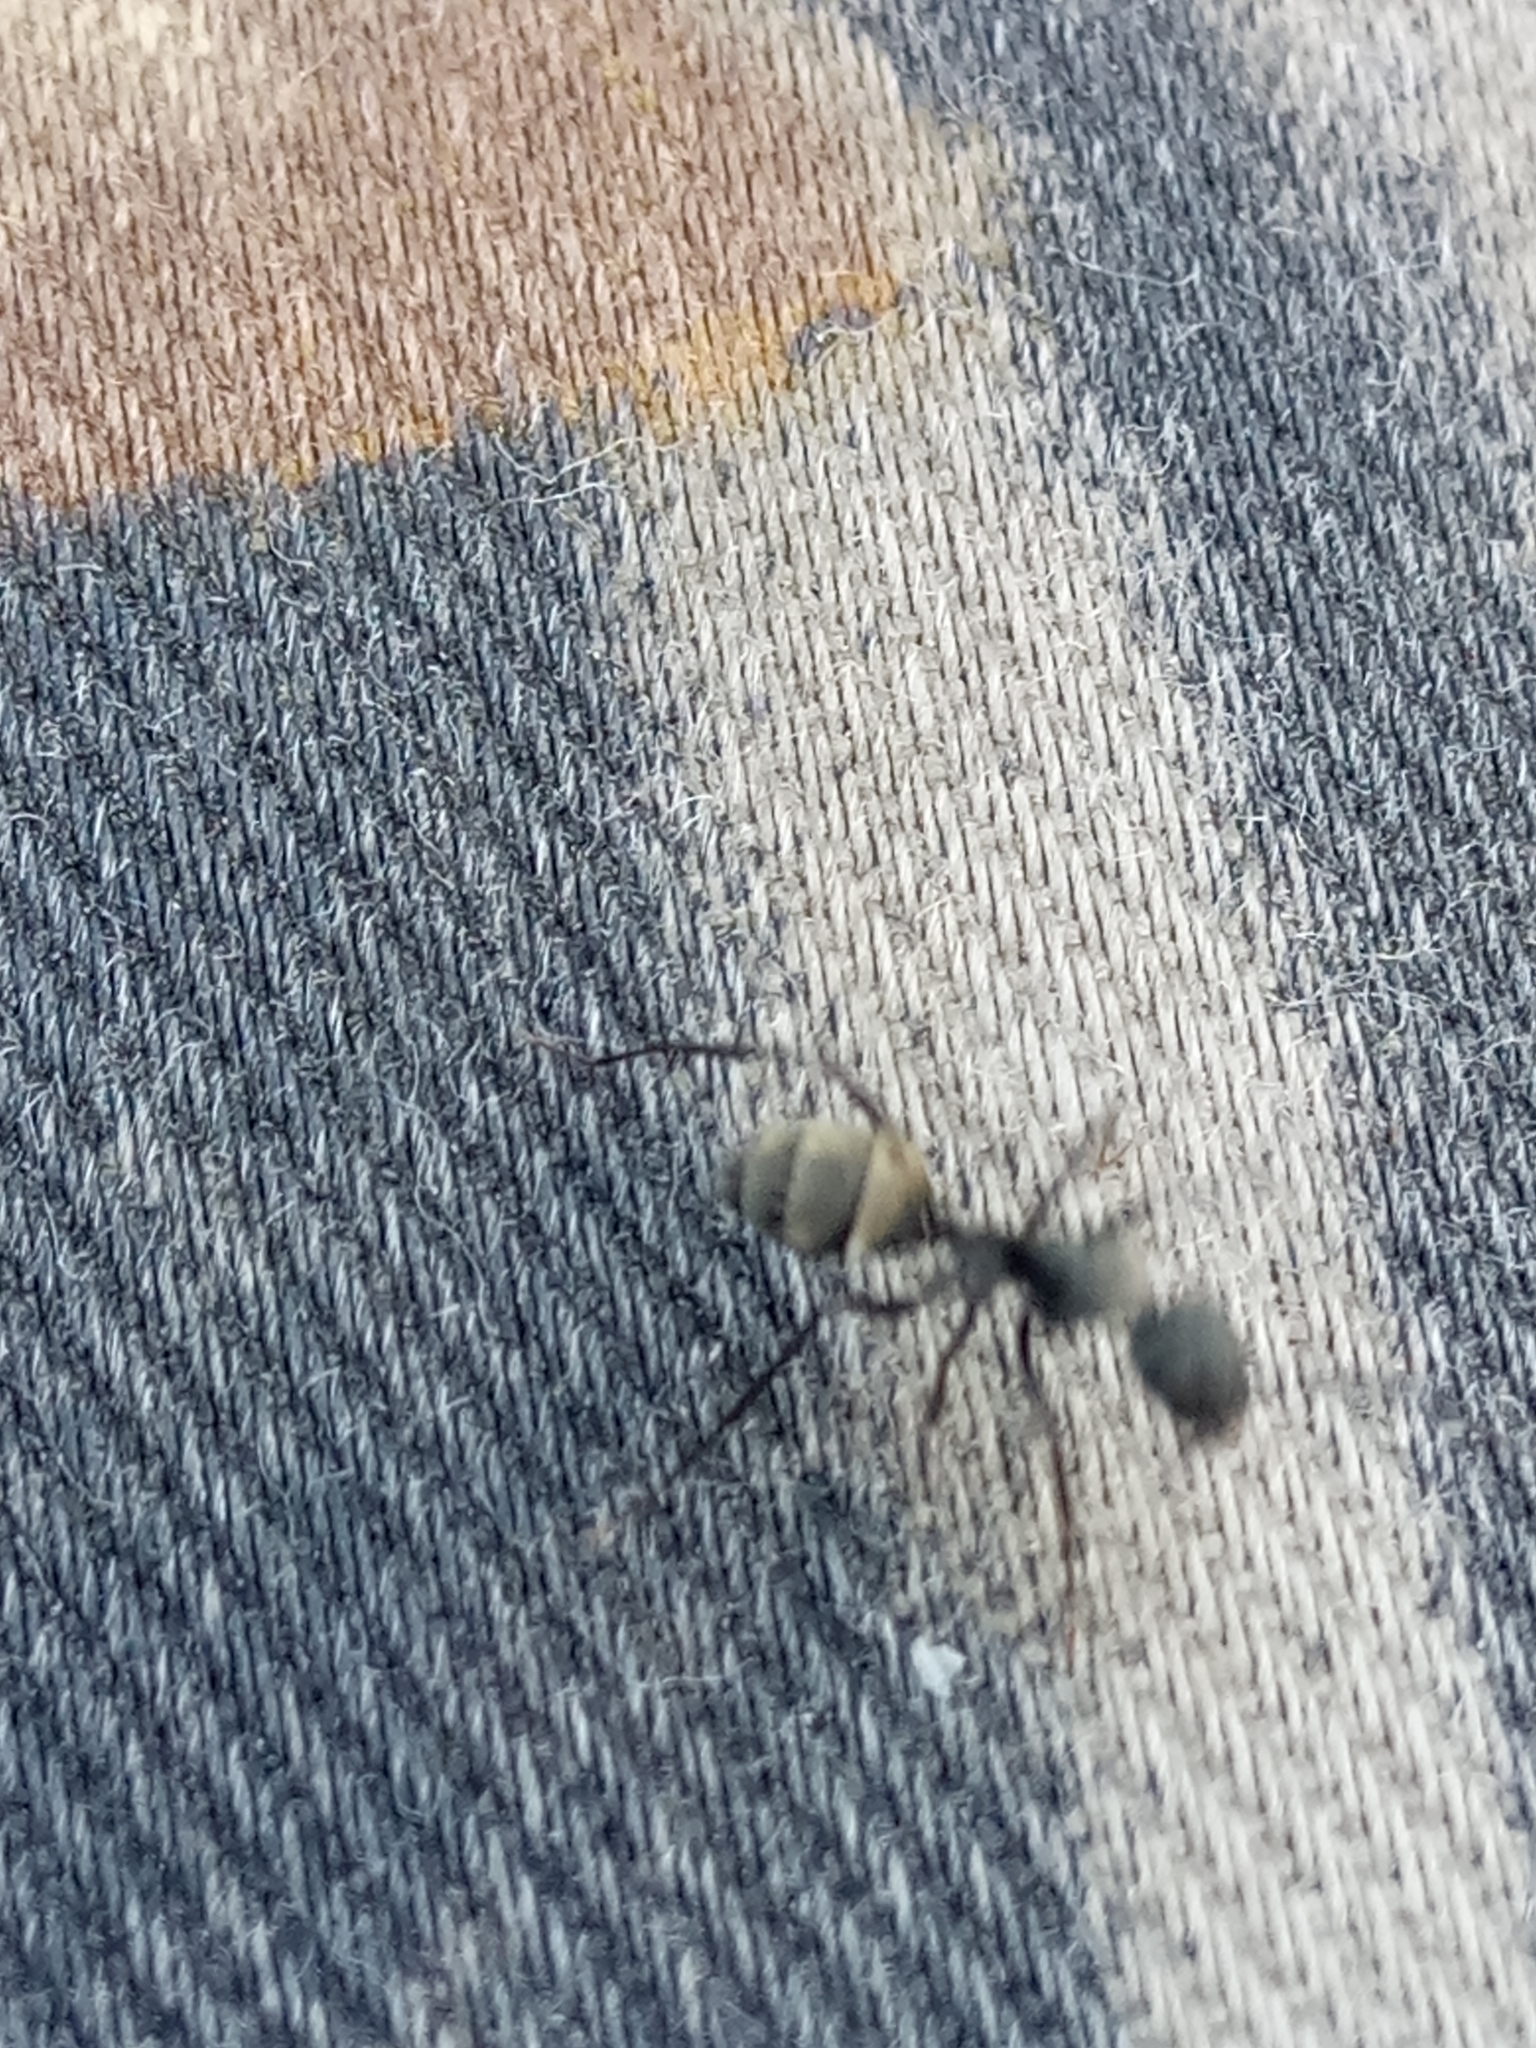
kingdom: Animalia
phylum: Arthropoda
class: Insecta
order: Hymenoptera
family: Formicidae
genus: Camponotus
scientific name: Camponotus micans
